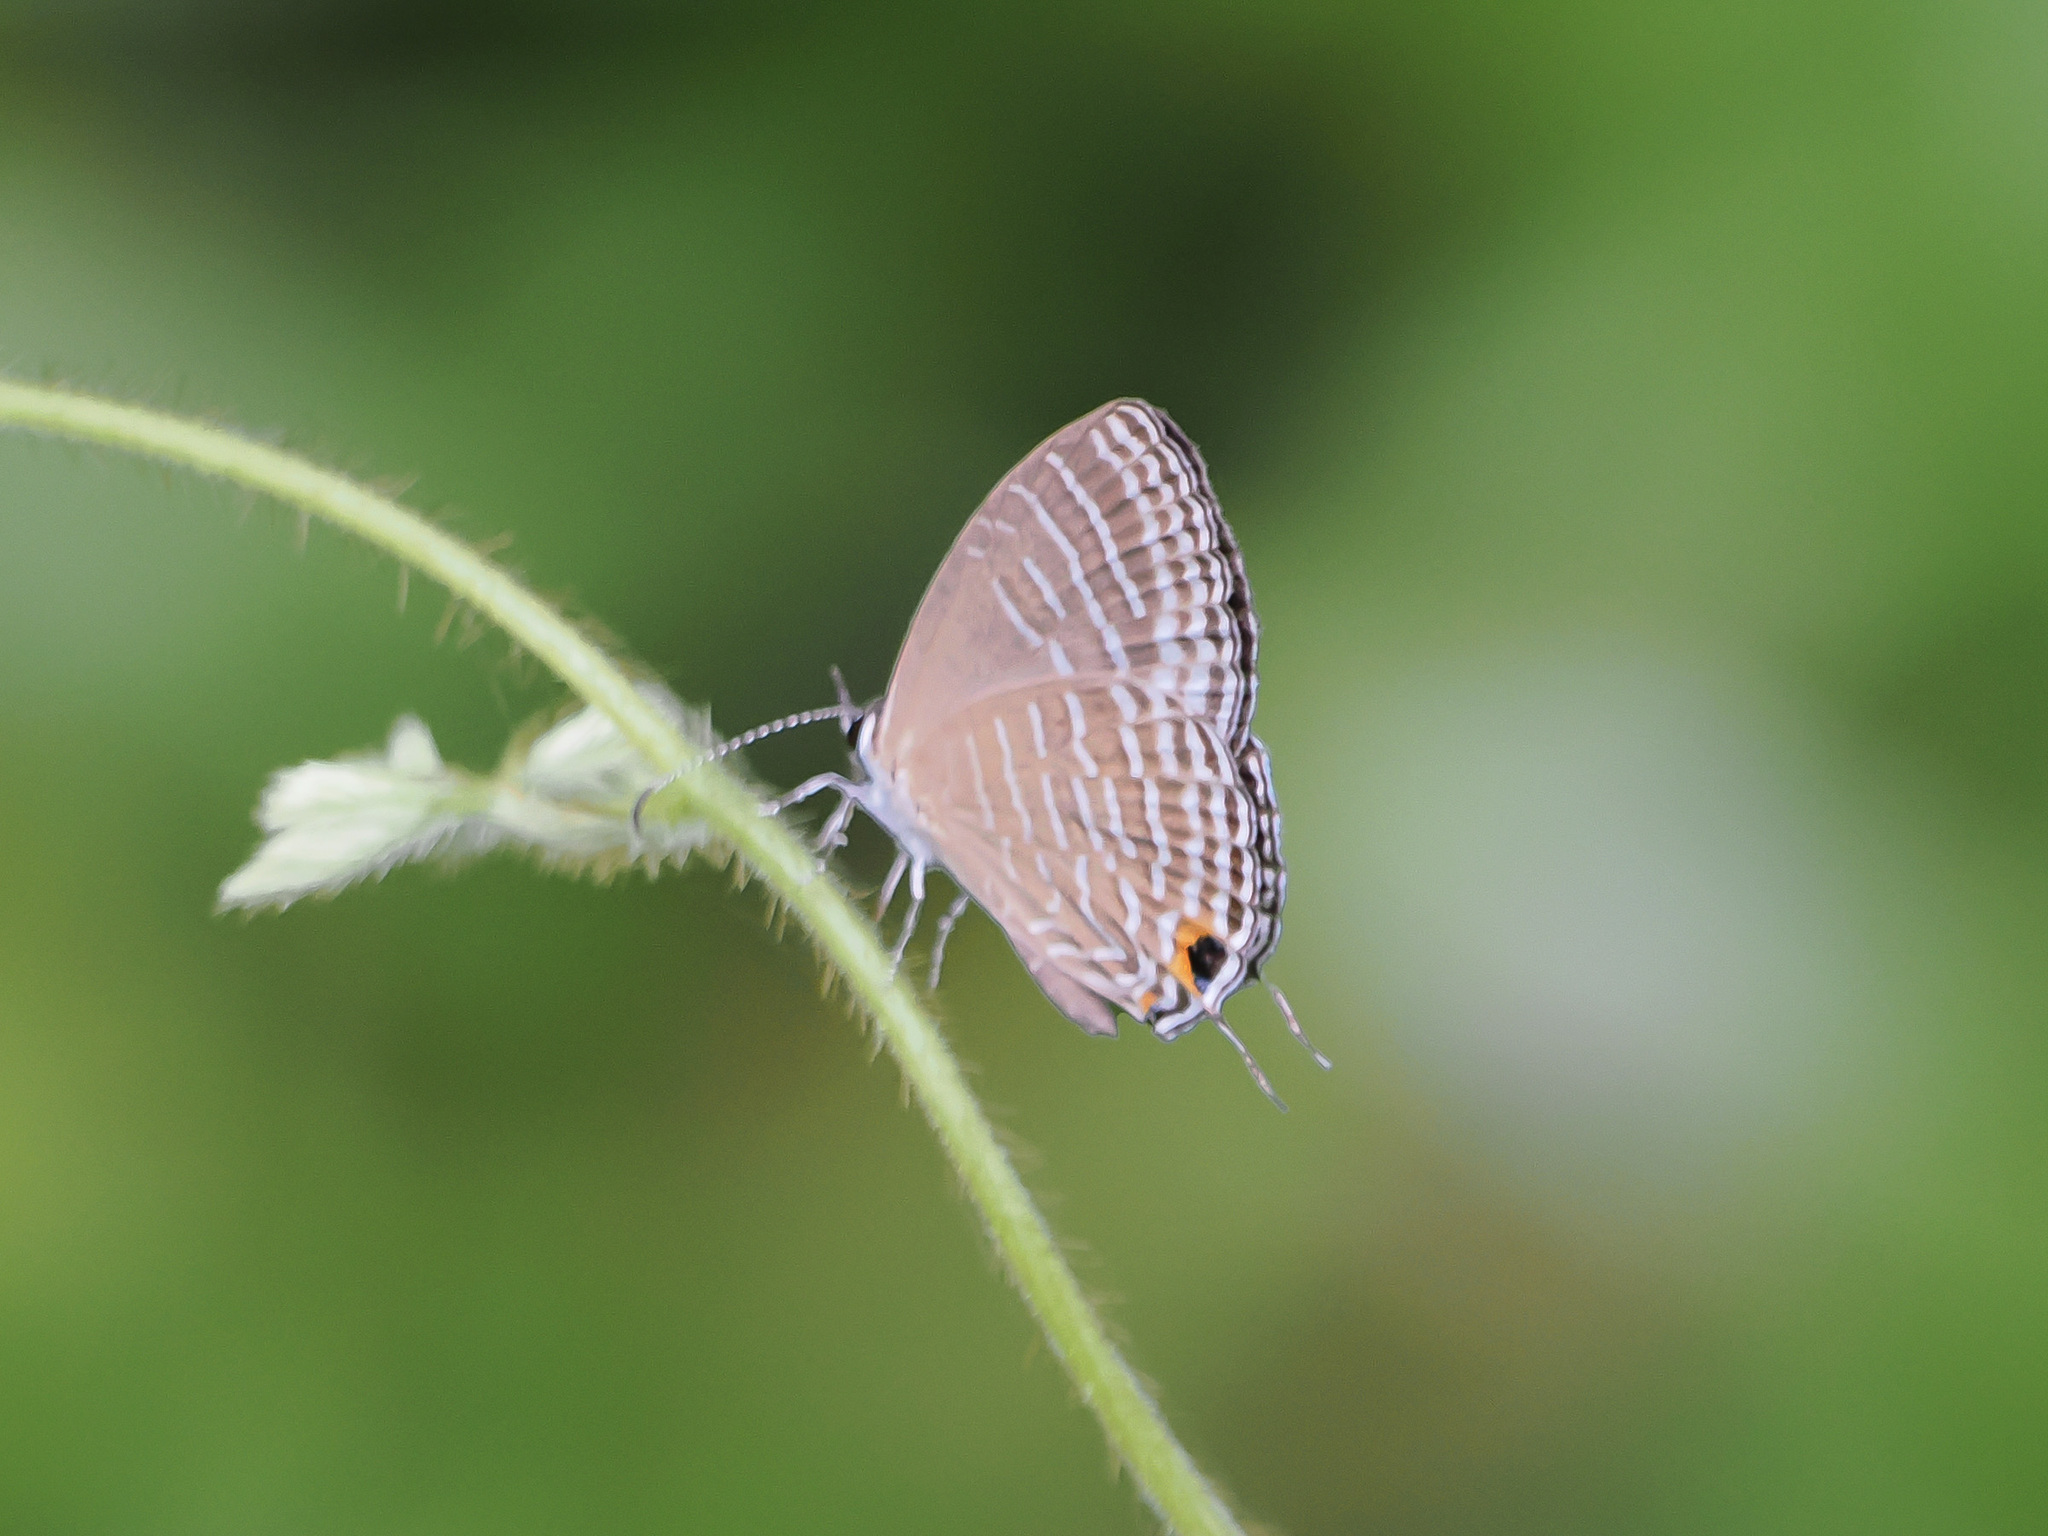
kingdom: Animalia
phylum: Arthropoda
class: Insecta
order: Lepidoptera
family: Lycaenidae
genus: Jamides
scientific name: Jamides celeno
